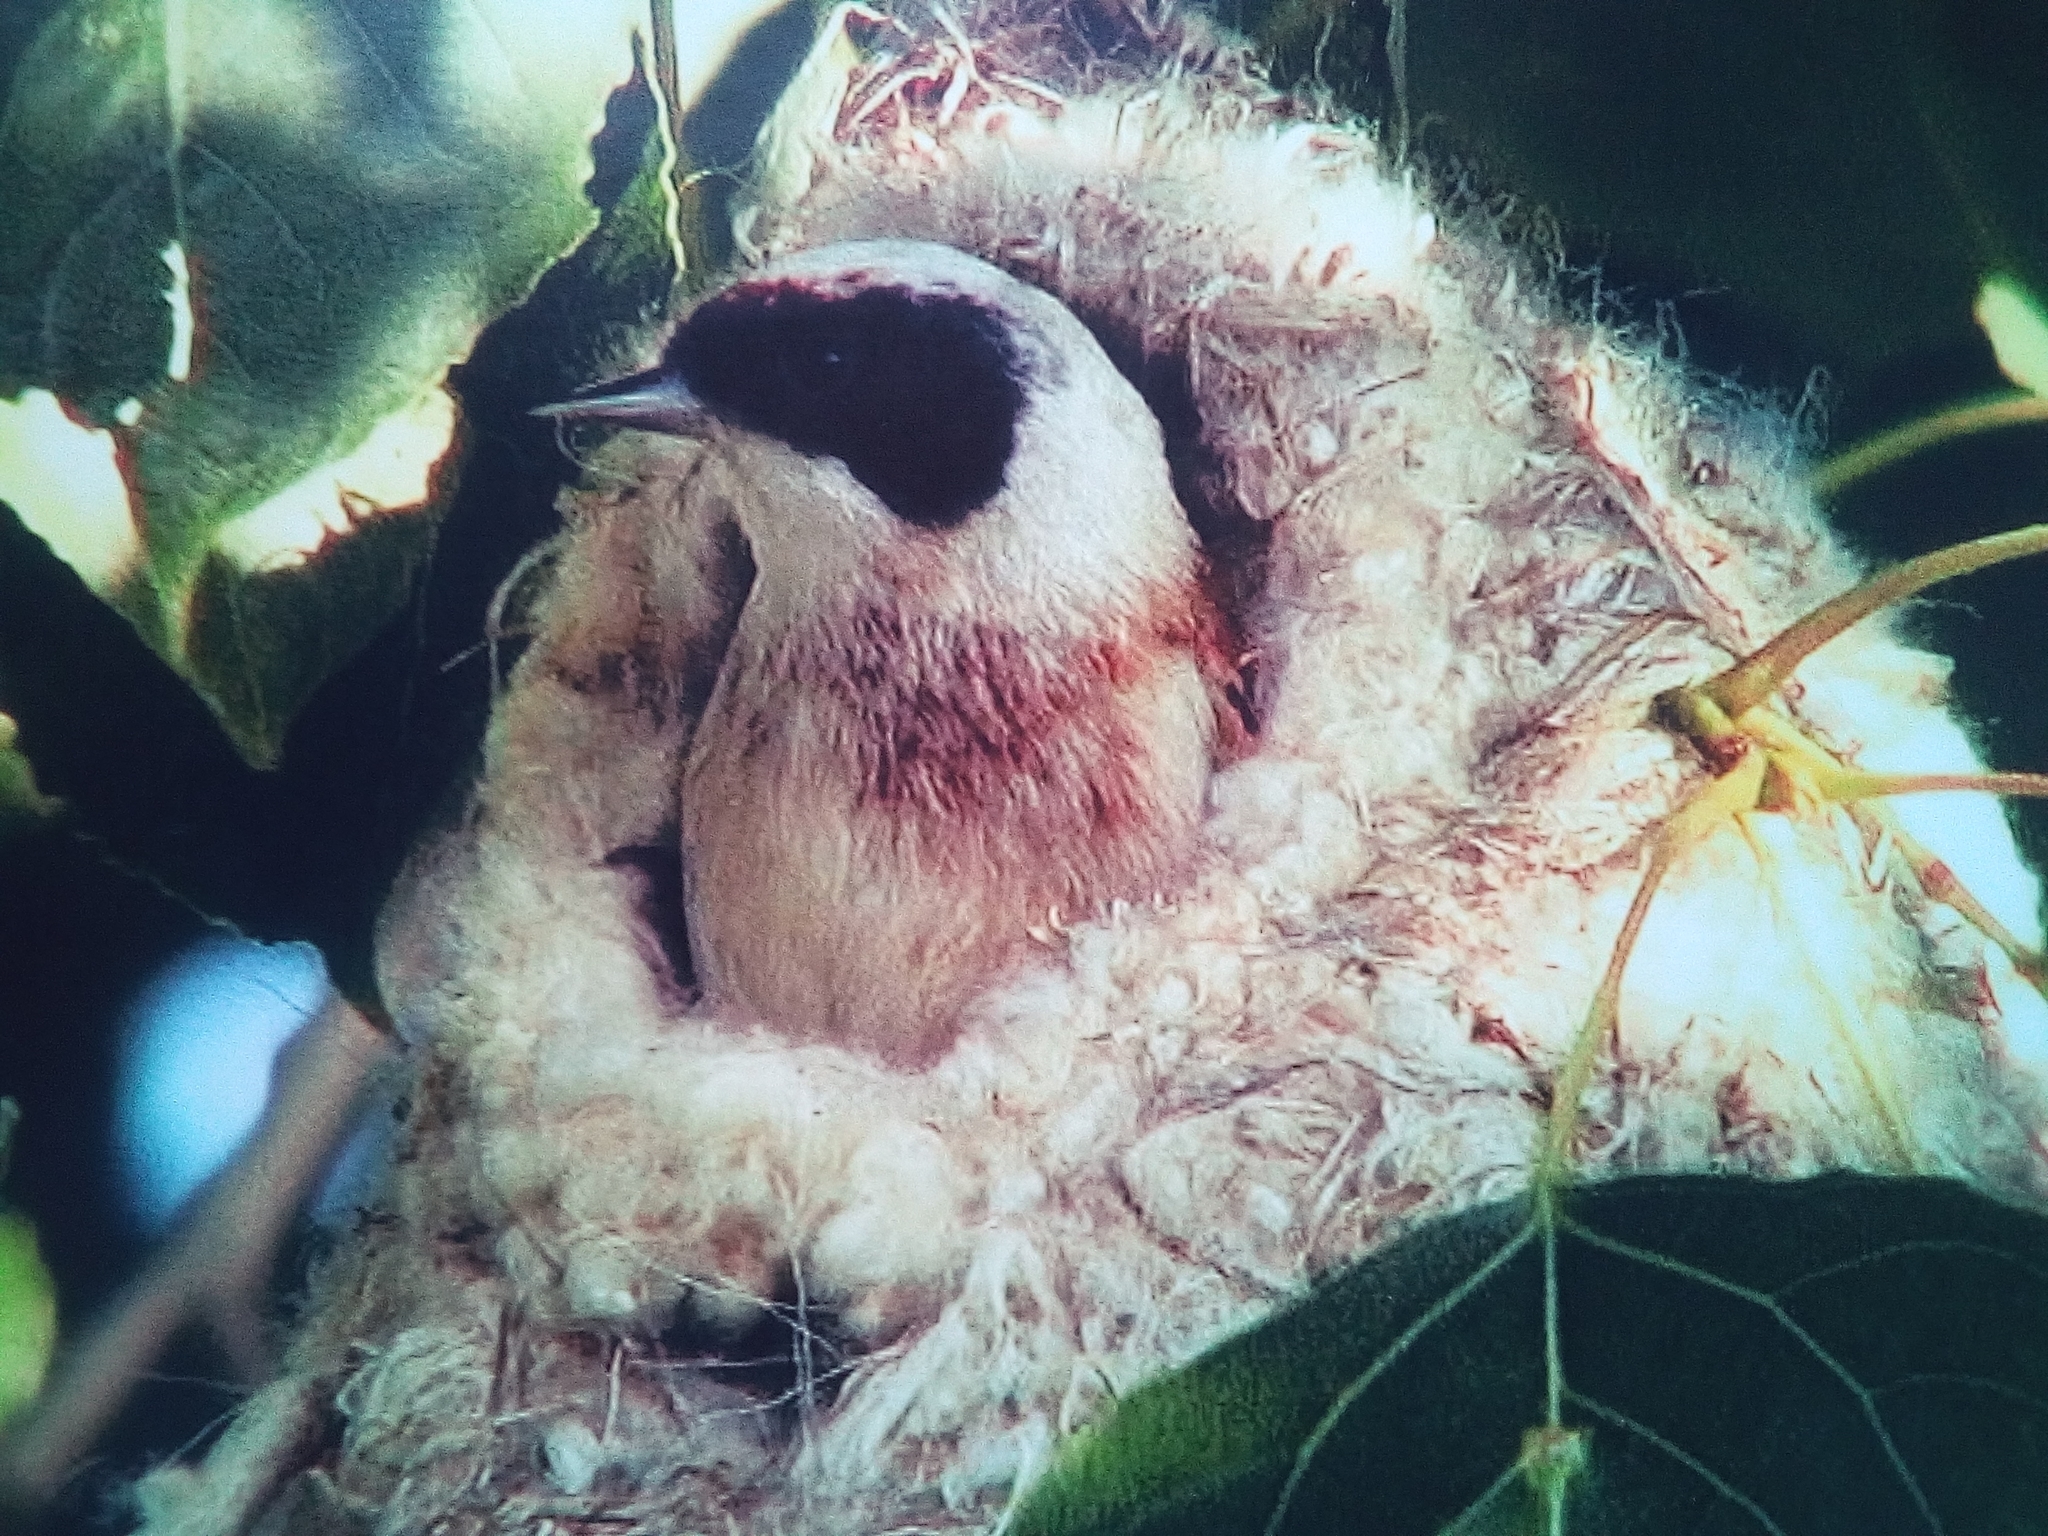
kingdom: Animalia
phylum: Chordata
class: Aves
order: Passeriformes
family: Remizidae
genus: Remiz
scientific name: Remiz pendulinus
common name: Eurasian penduline tit
